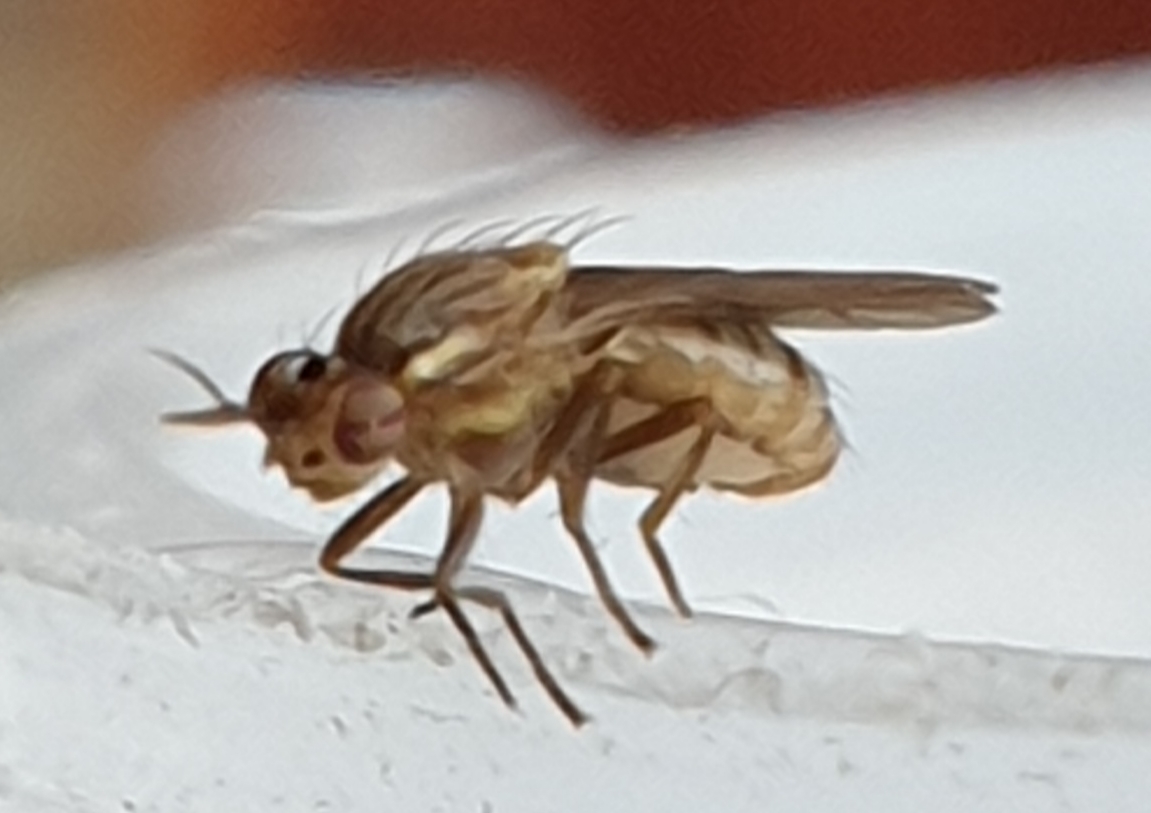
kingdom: Animalia
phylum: Arthropoda
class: Insecta
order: Diptera
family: Lauxaniidae
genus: Pachycerina
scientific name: Pachycerina seticornis
